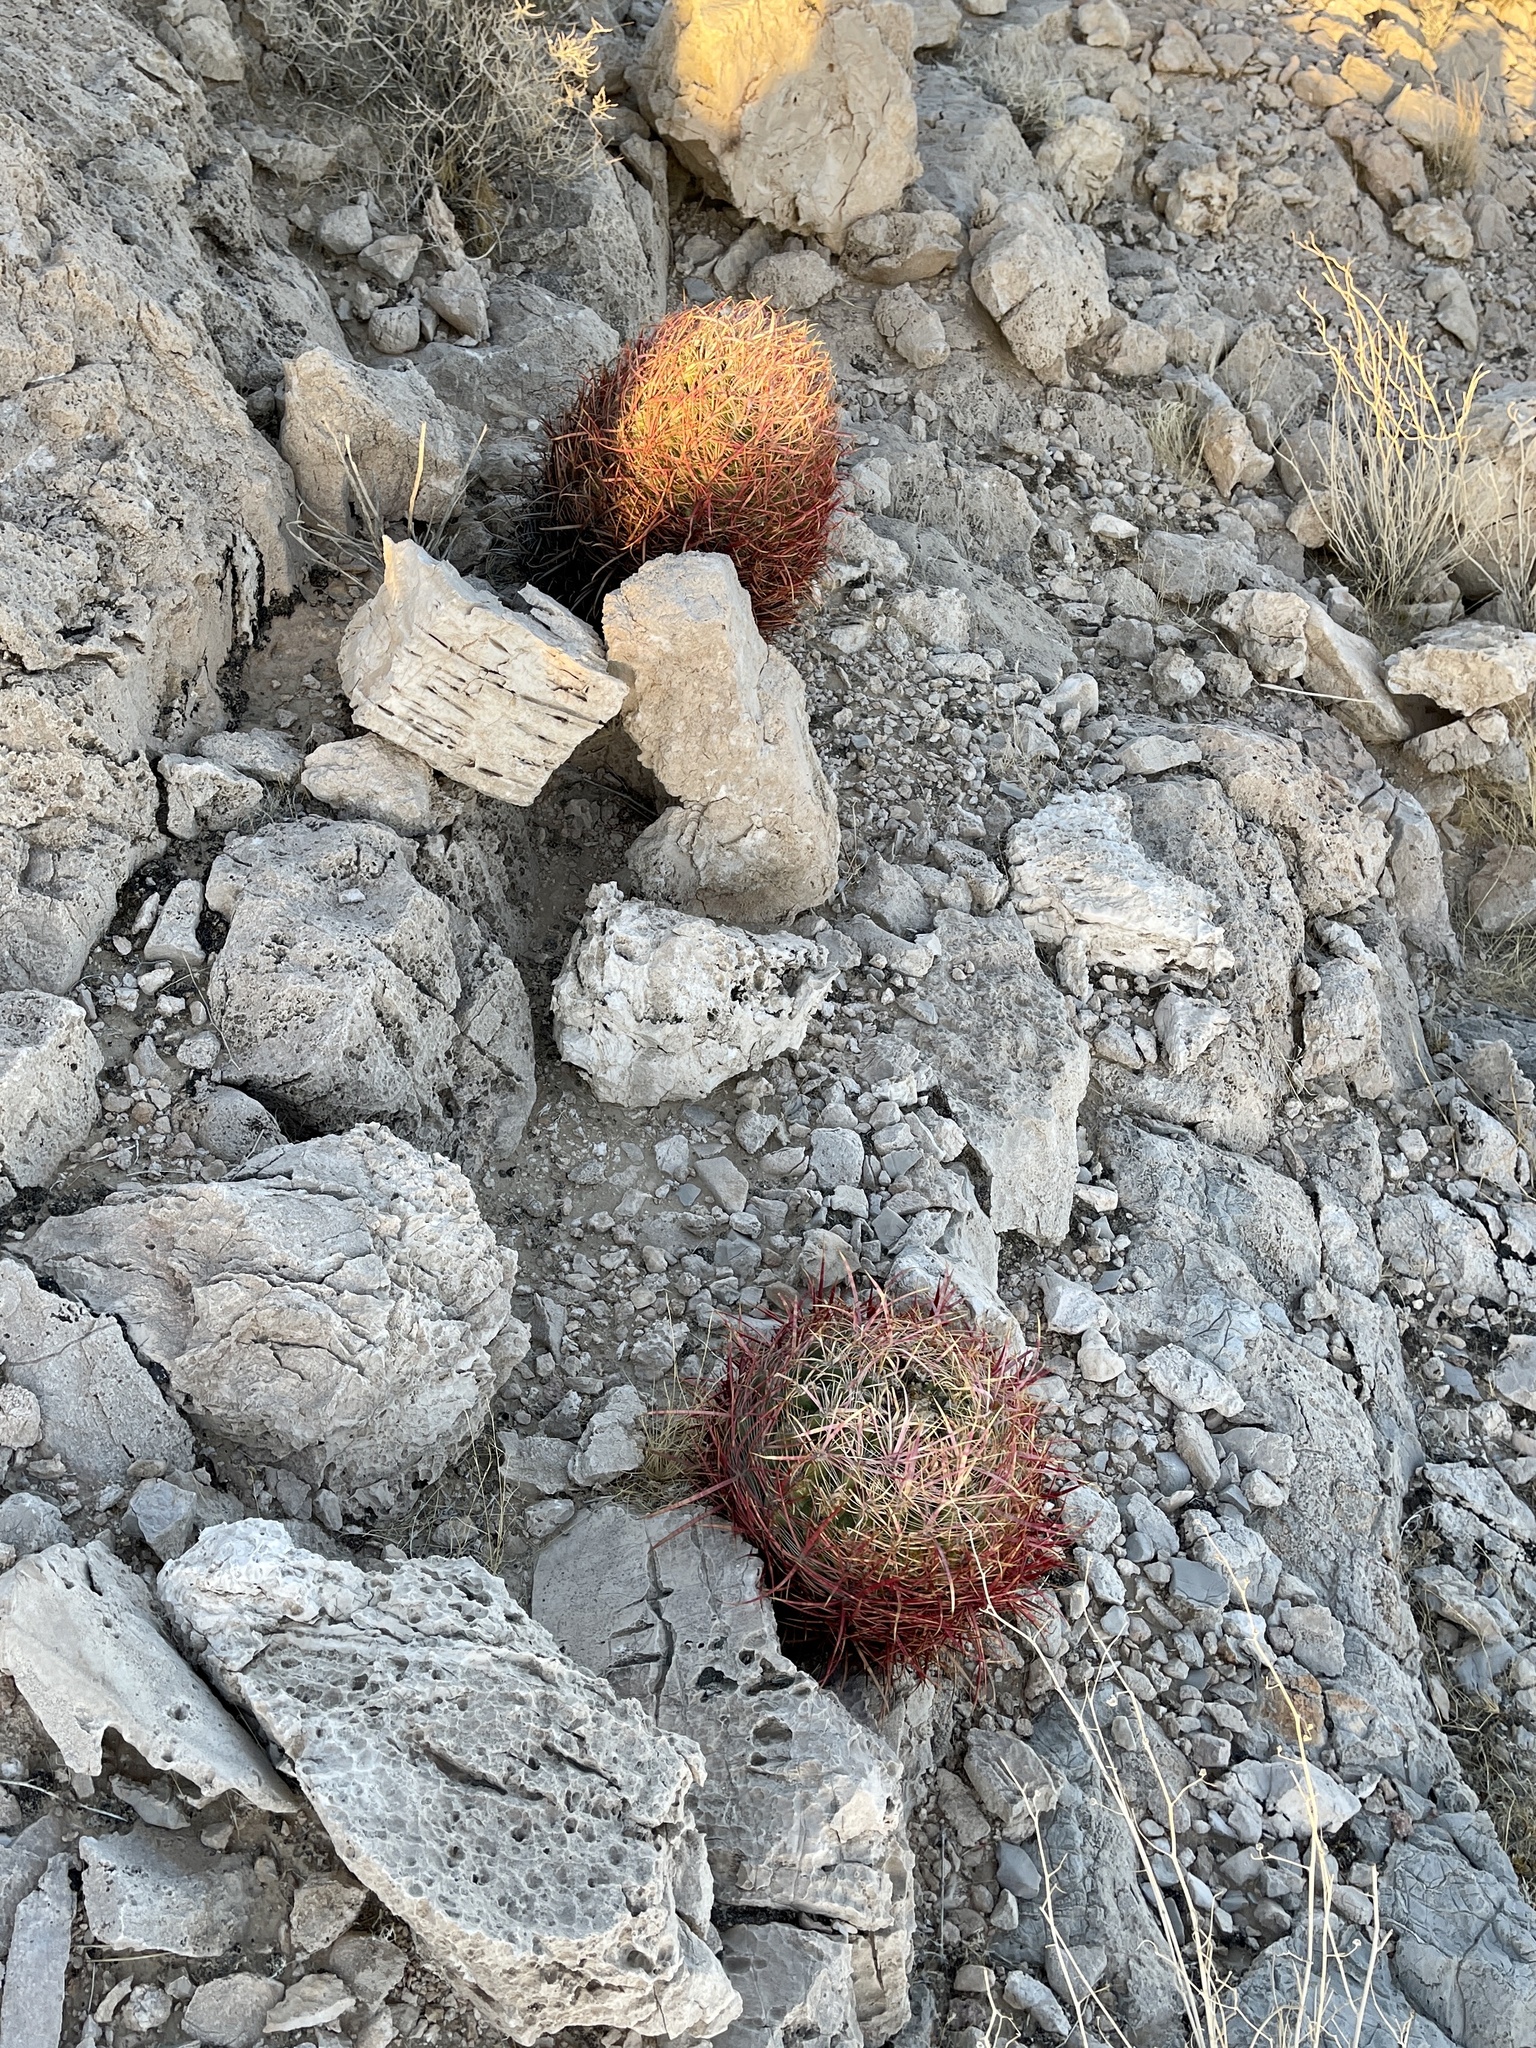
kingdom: Plantae
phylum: Tracheophyta
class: Magnoliopsida
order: Caryophyllales
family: Cactaceae
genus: Ferocactus
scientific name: Ferocactus cylindraceus
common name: California barrel cactus
